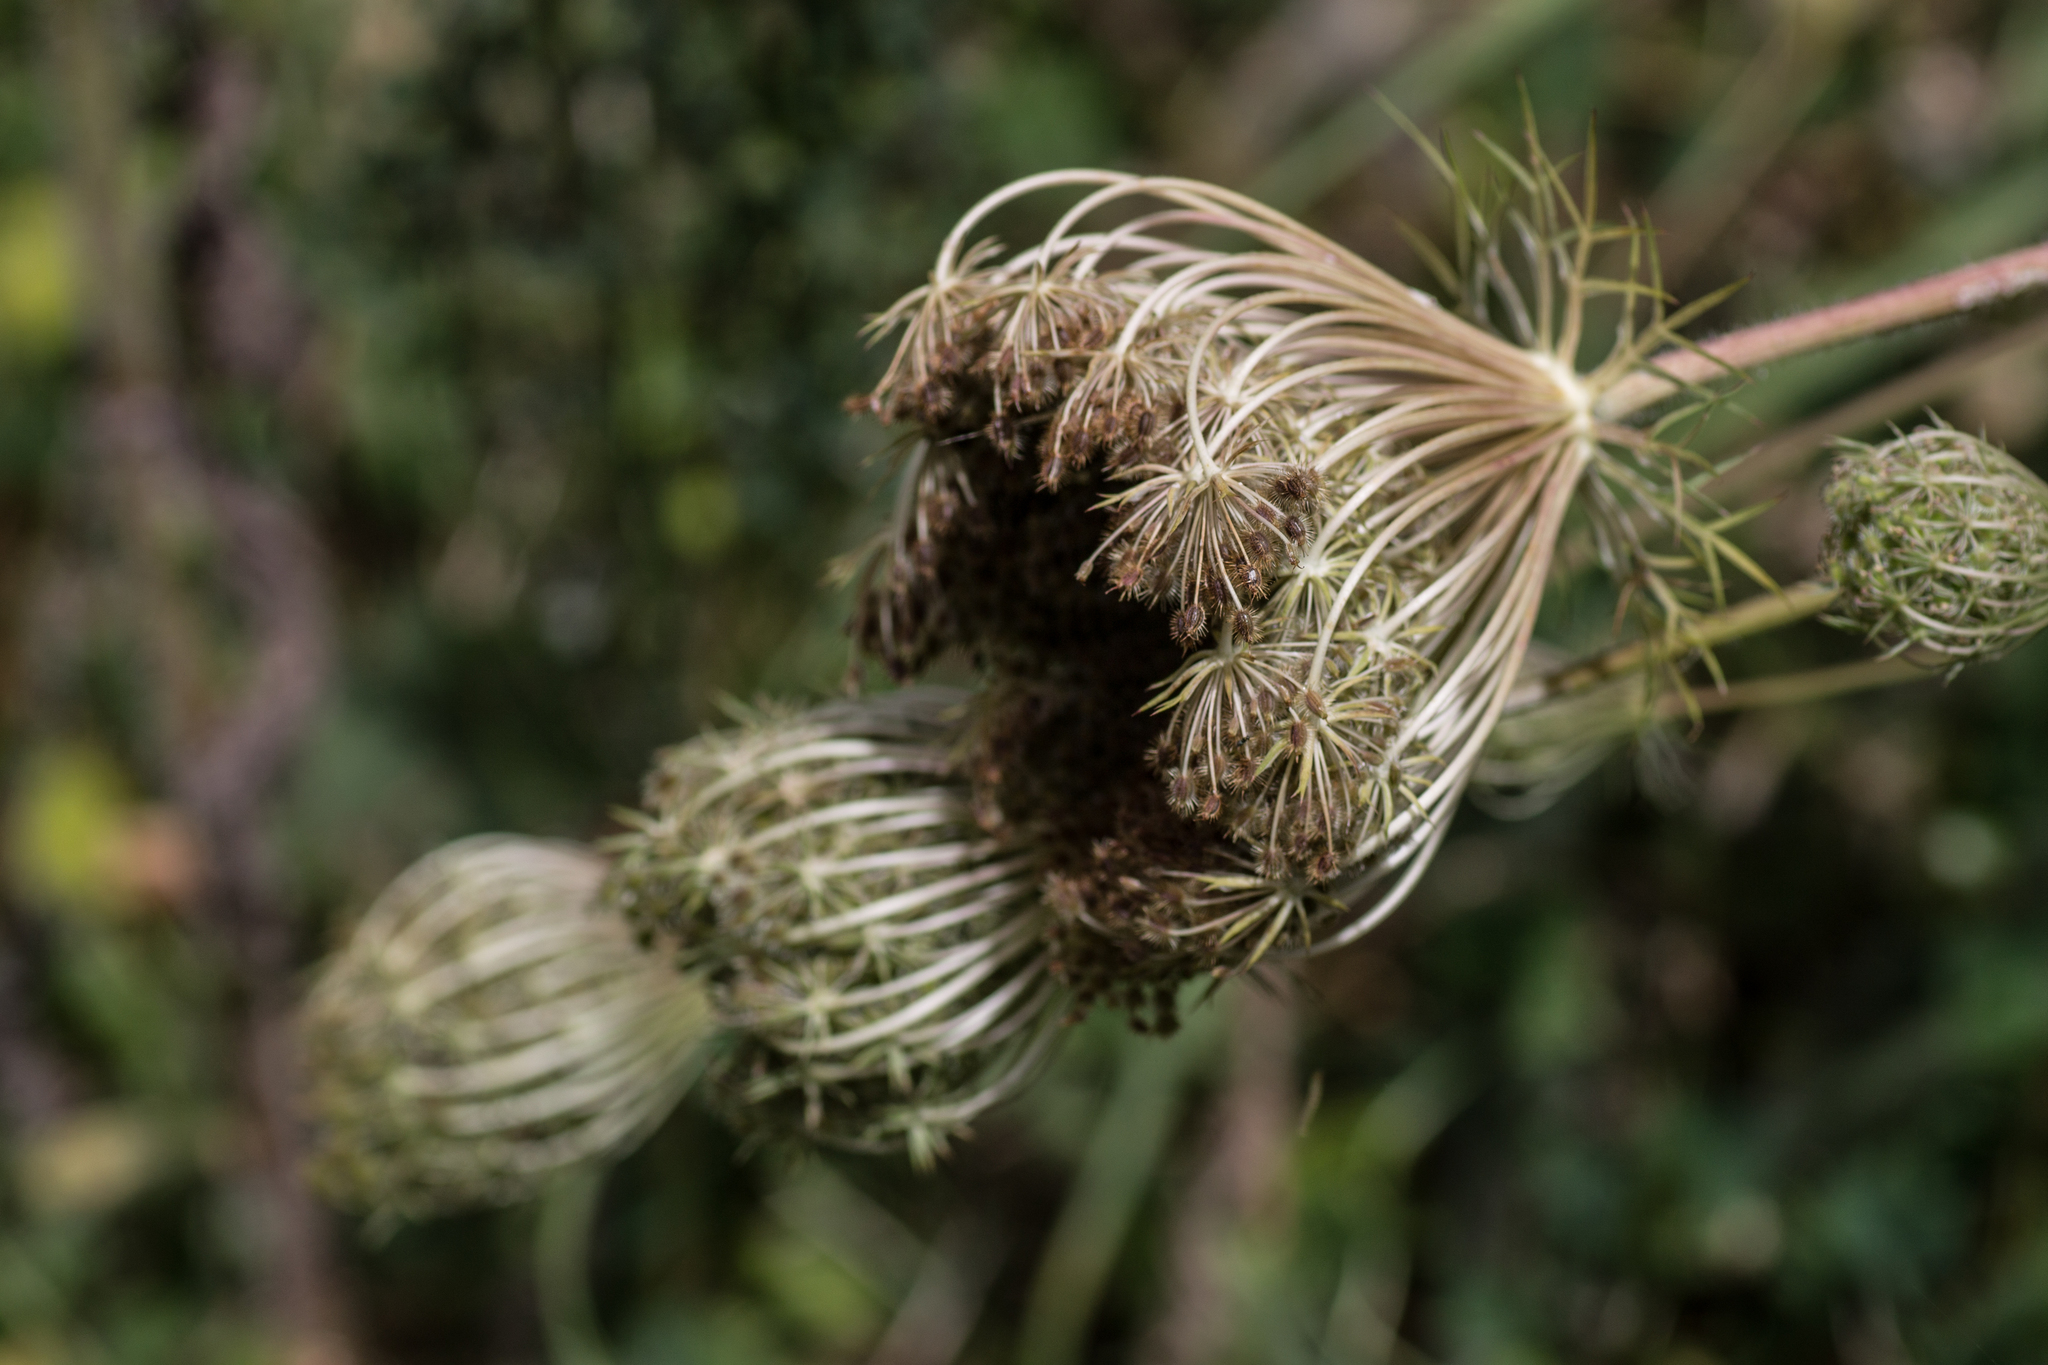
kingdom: Plantae
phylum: Tracheophyta
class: Magnoliopsida
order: Apiales
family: Apiaceae
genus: Daucus
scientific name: Daucus carota
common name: Wild carrot
